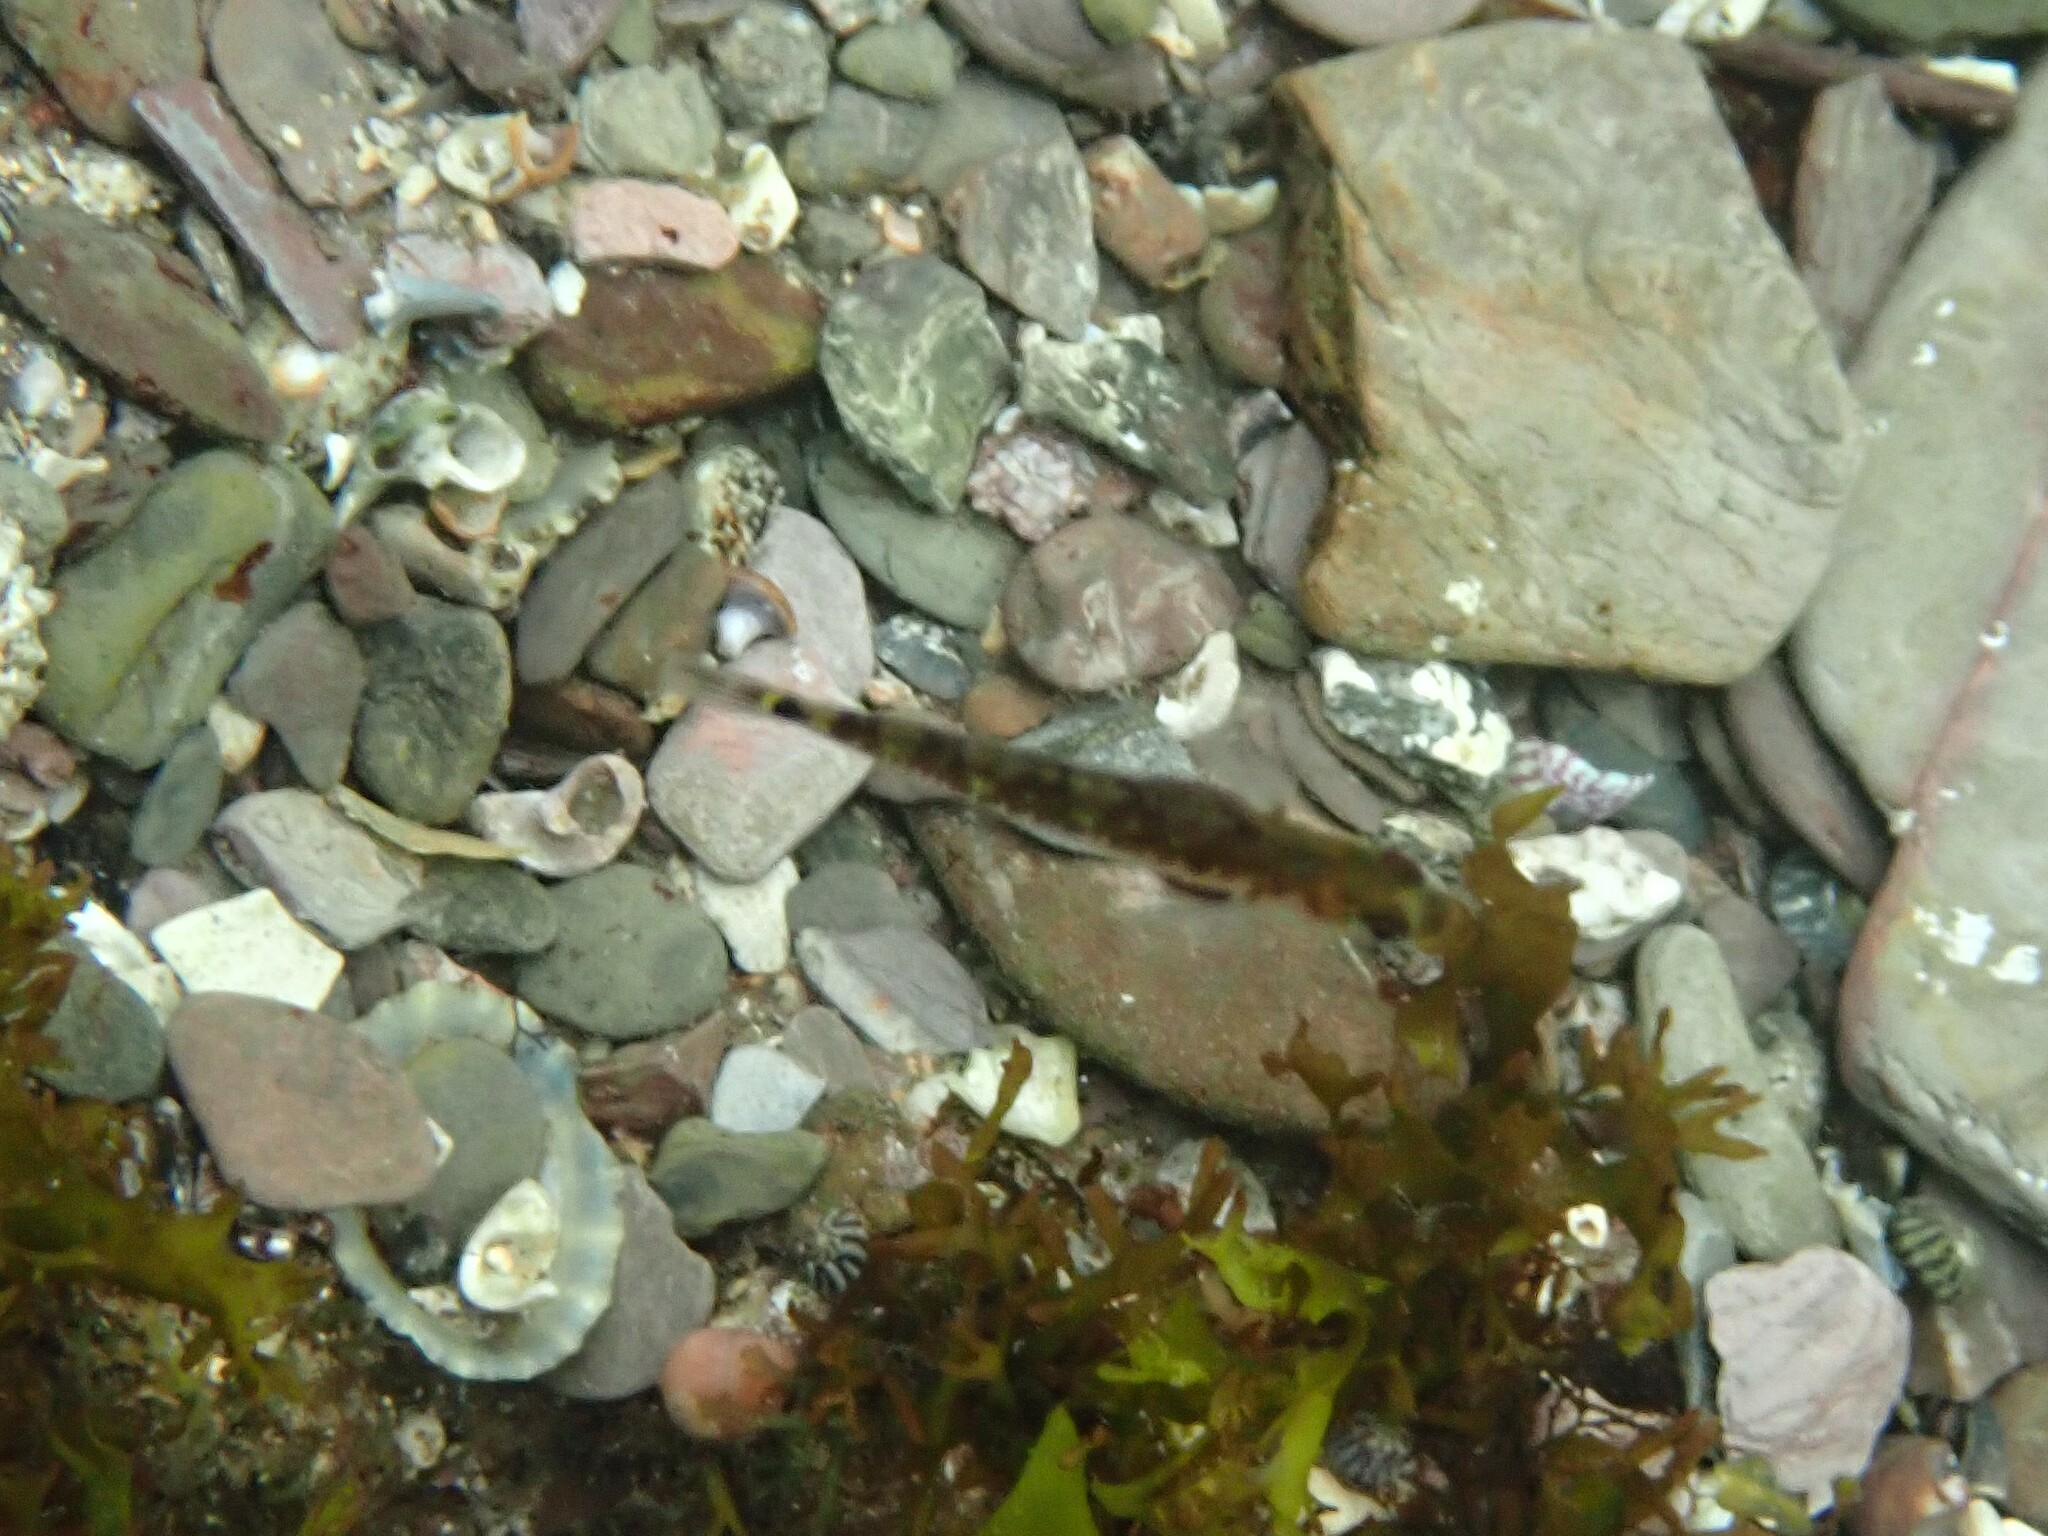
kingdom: Animalia
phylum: Chordata
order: Perciformes
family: Gobiidae
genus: Gobiusculus
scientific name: Gobiusculus flavescens
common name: Two-spotted goby
